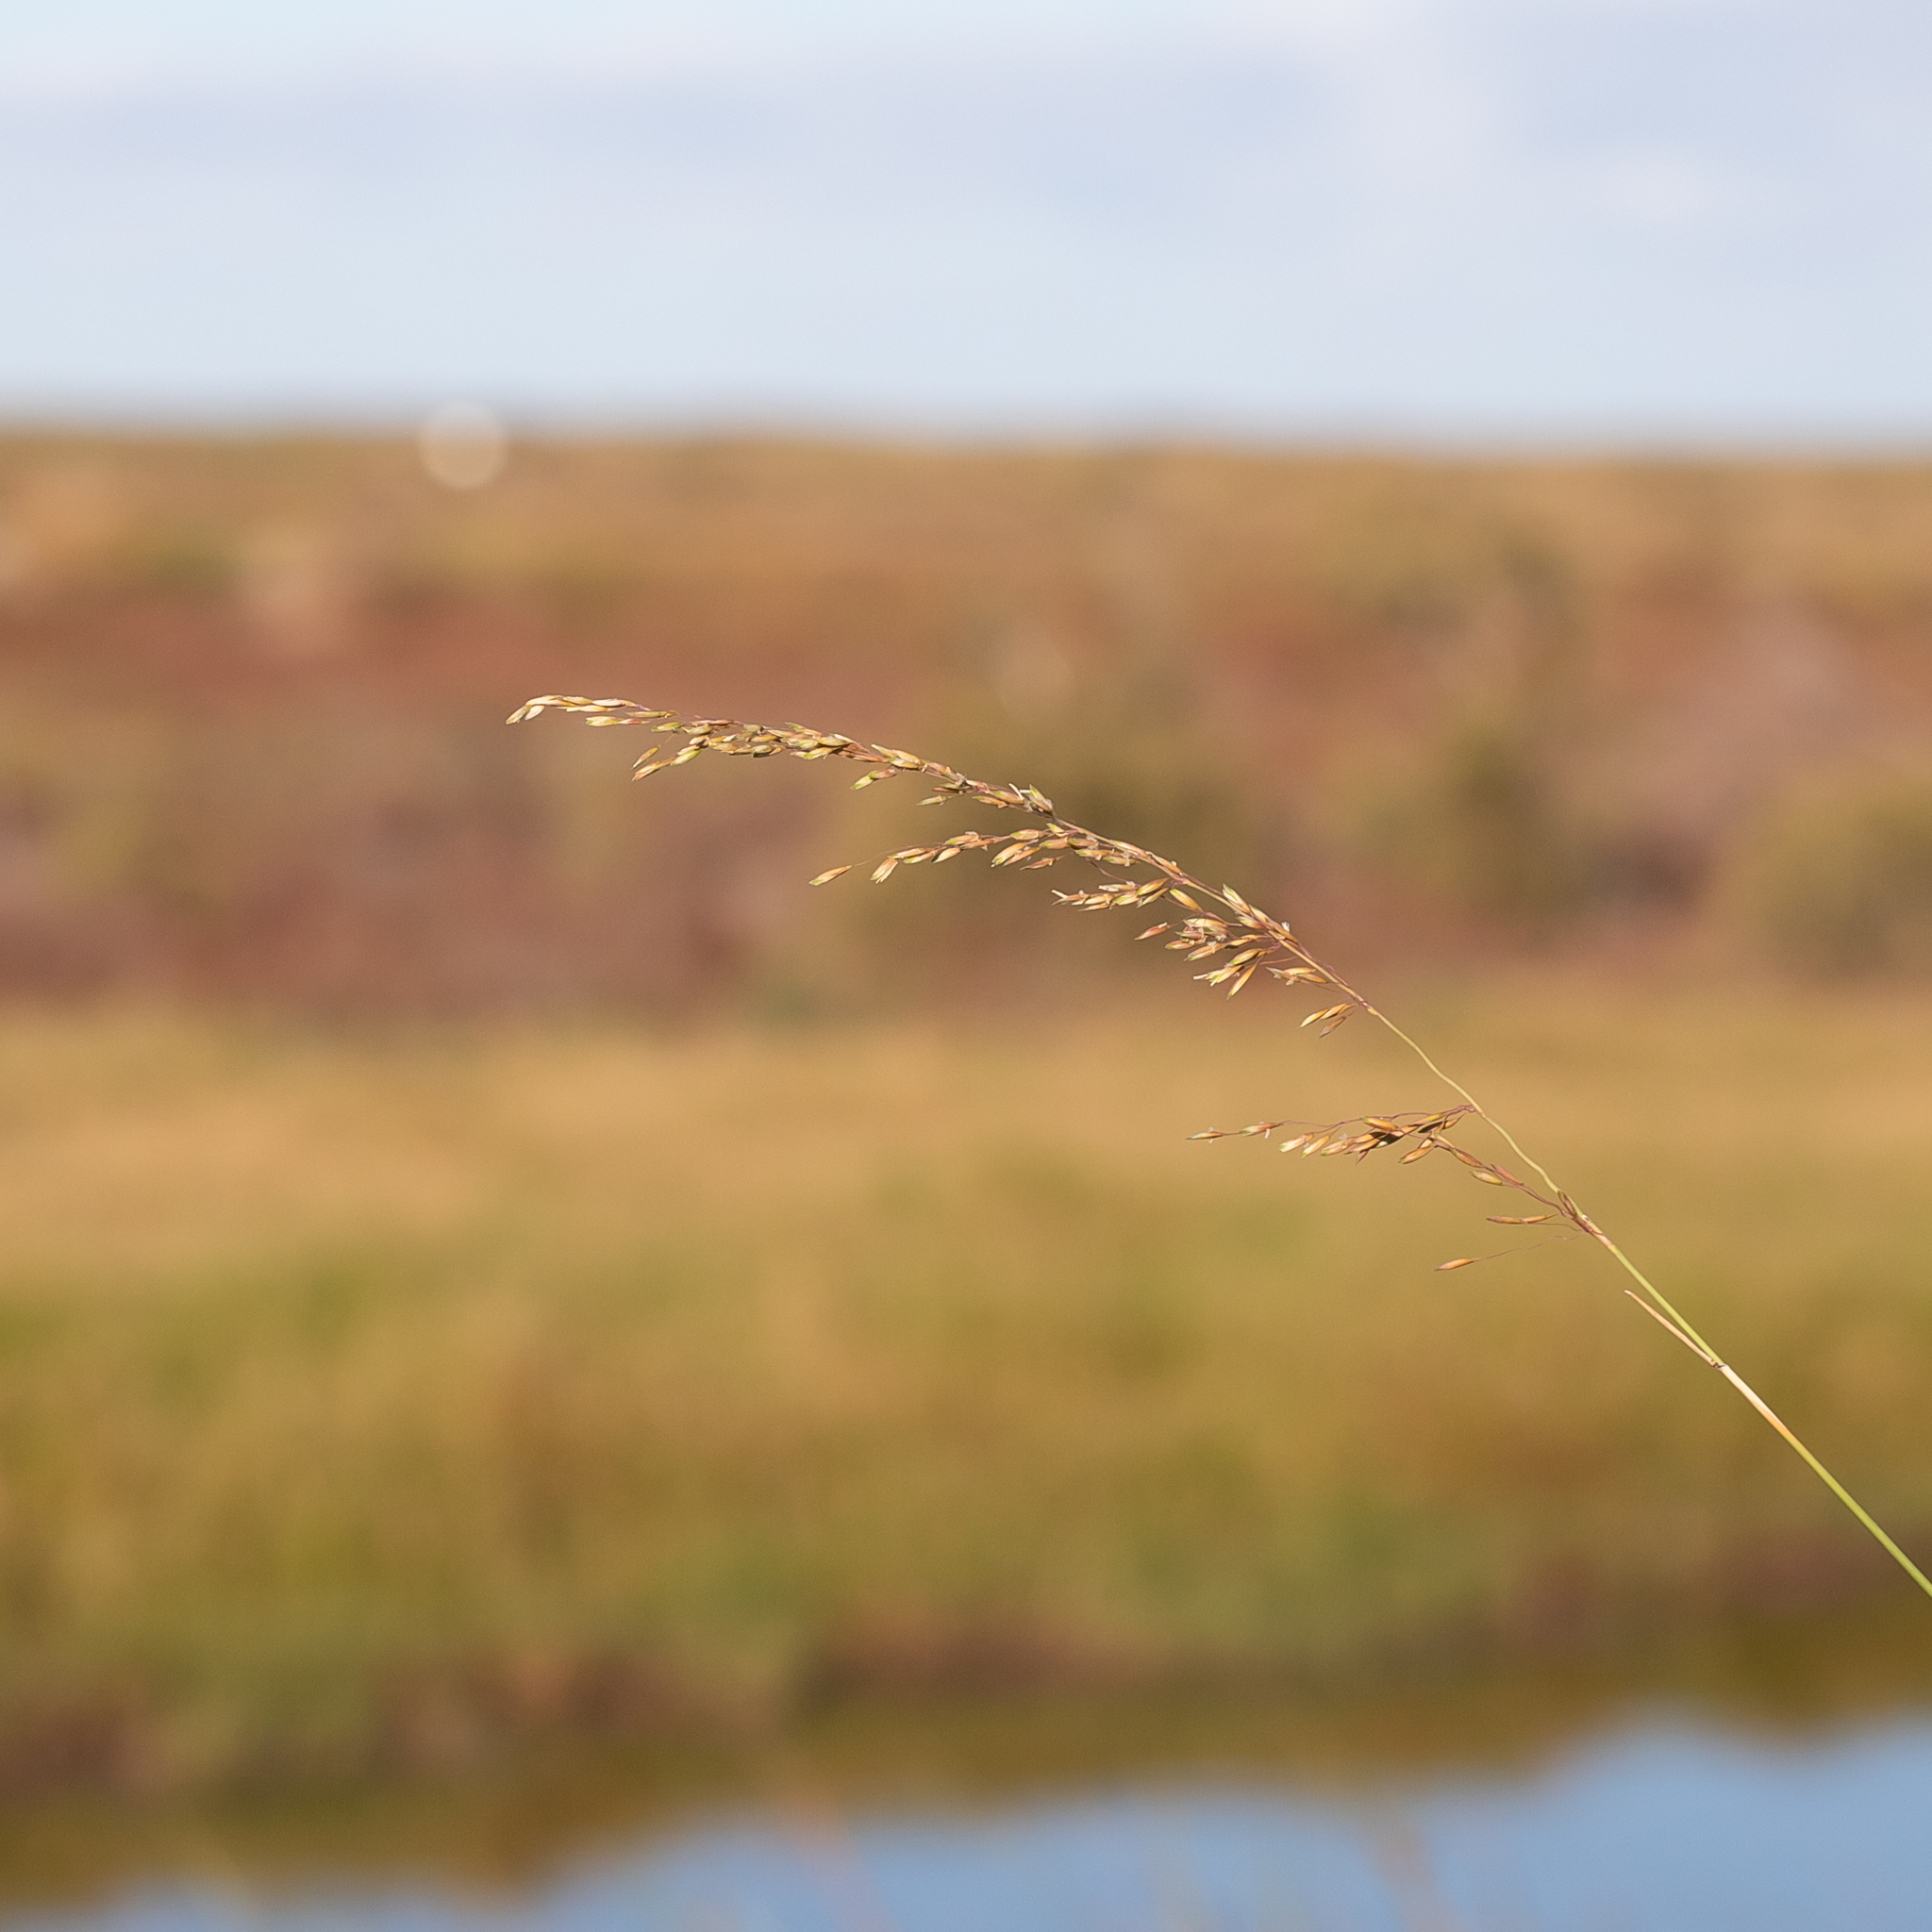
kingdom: Plantae
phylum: Tracheophyta
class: Liliopsida
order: Poales
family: Poaceae
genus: Ehrharta
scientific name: Ehrharta calycina
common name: Perennial veldtgrass
